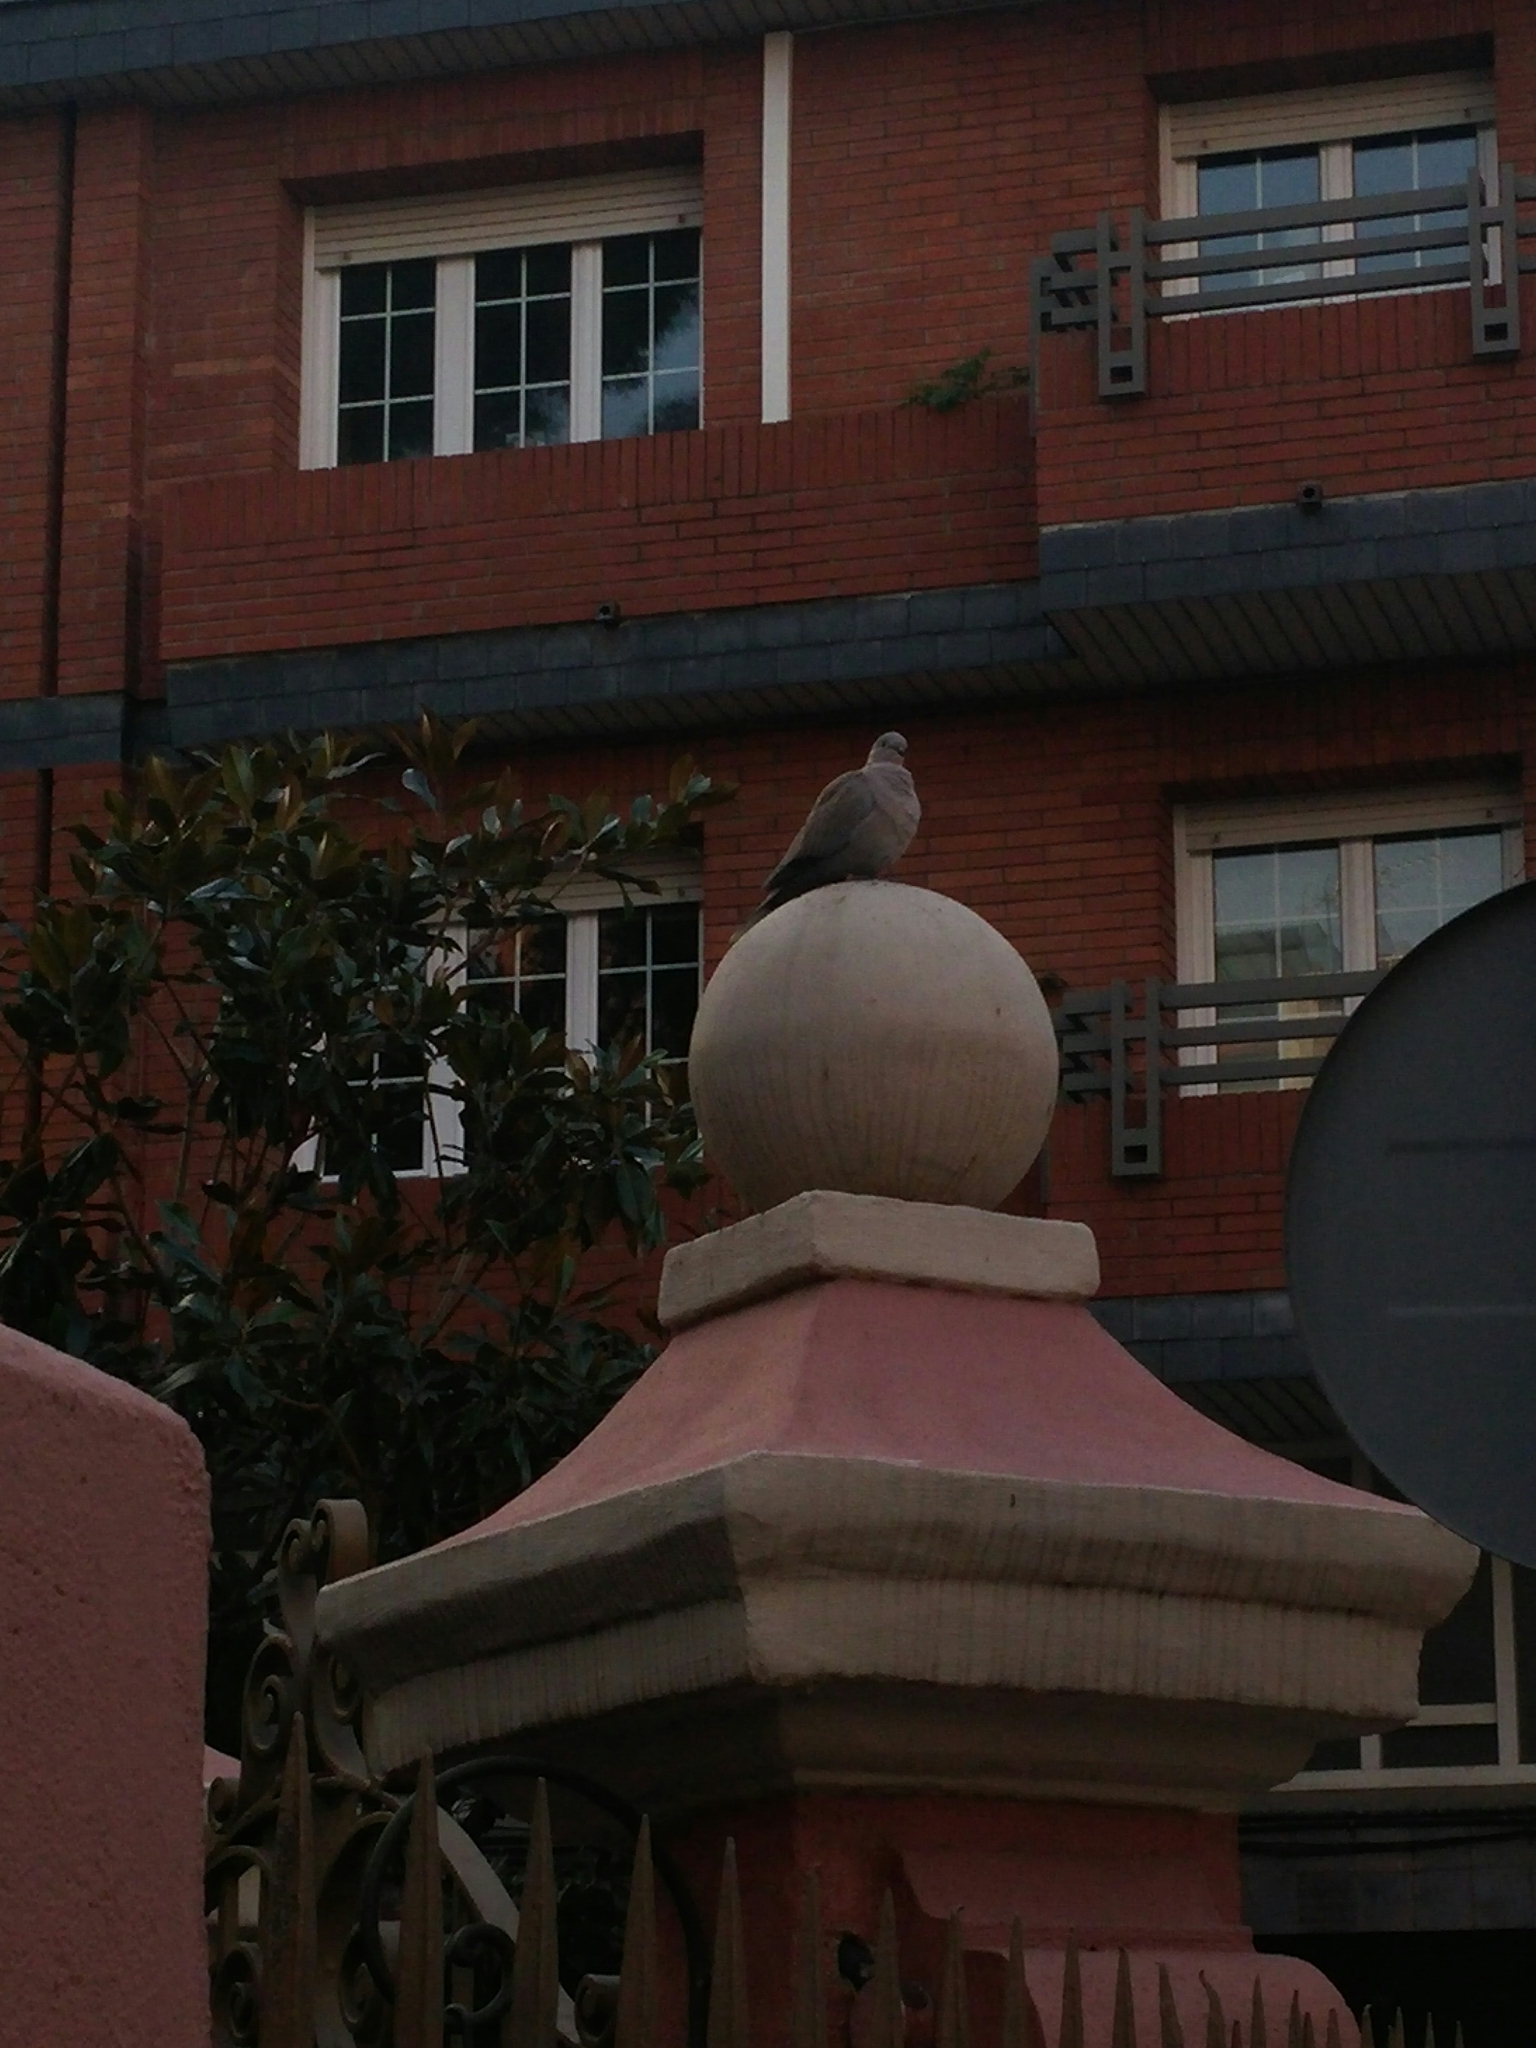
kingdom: Animalia
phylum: Chordata
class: Aves
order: Columbiformes
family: Columbidae
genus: Streptopelia
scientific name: Streptopelia decaocto
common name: Eurasian collared dove
